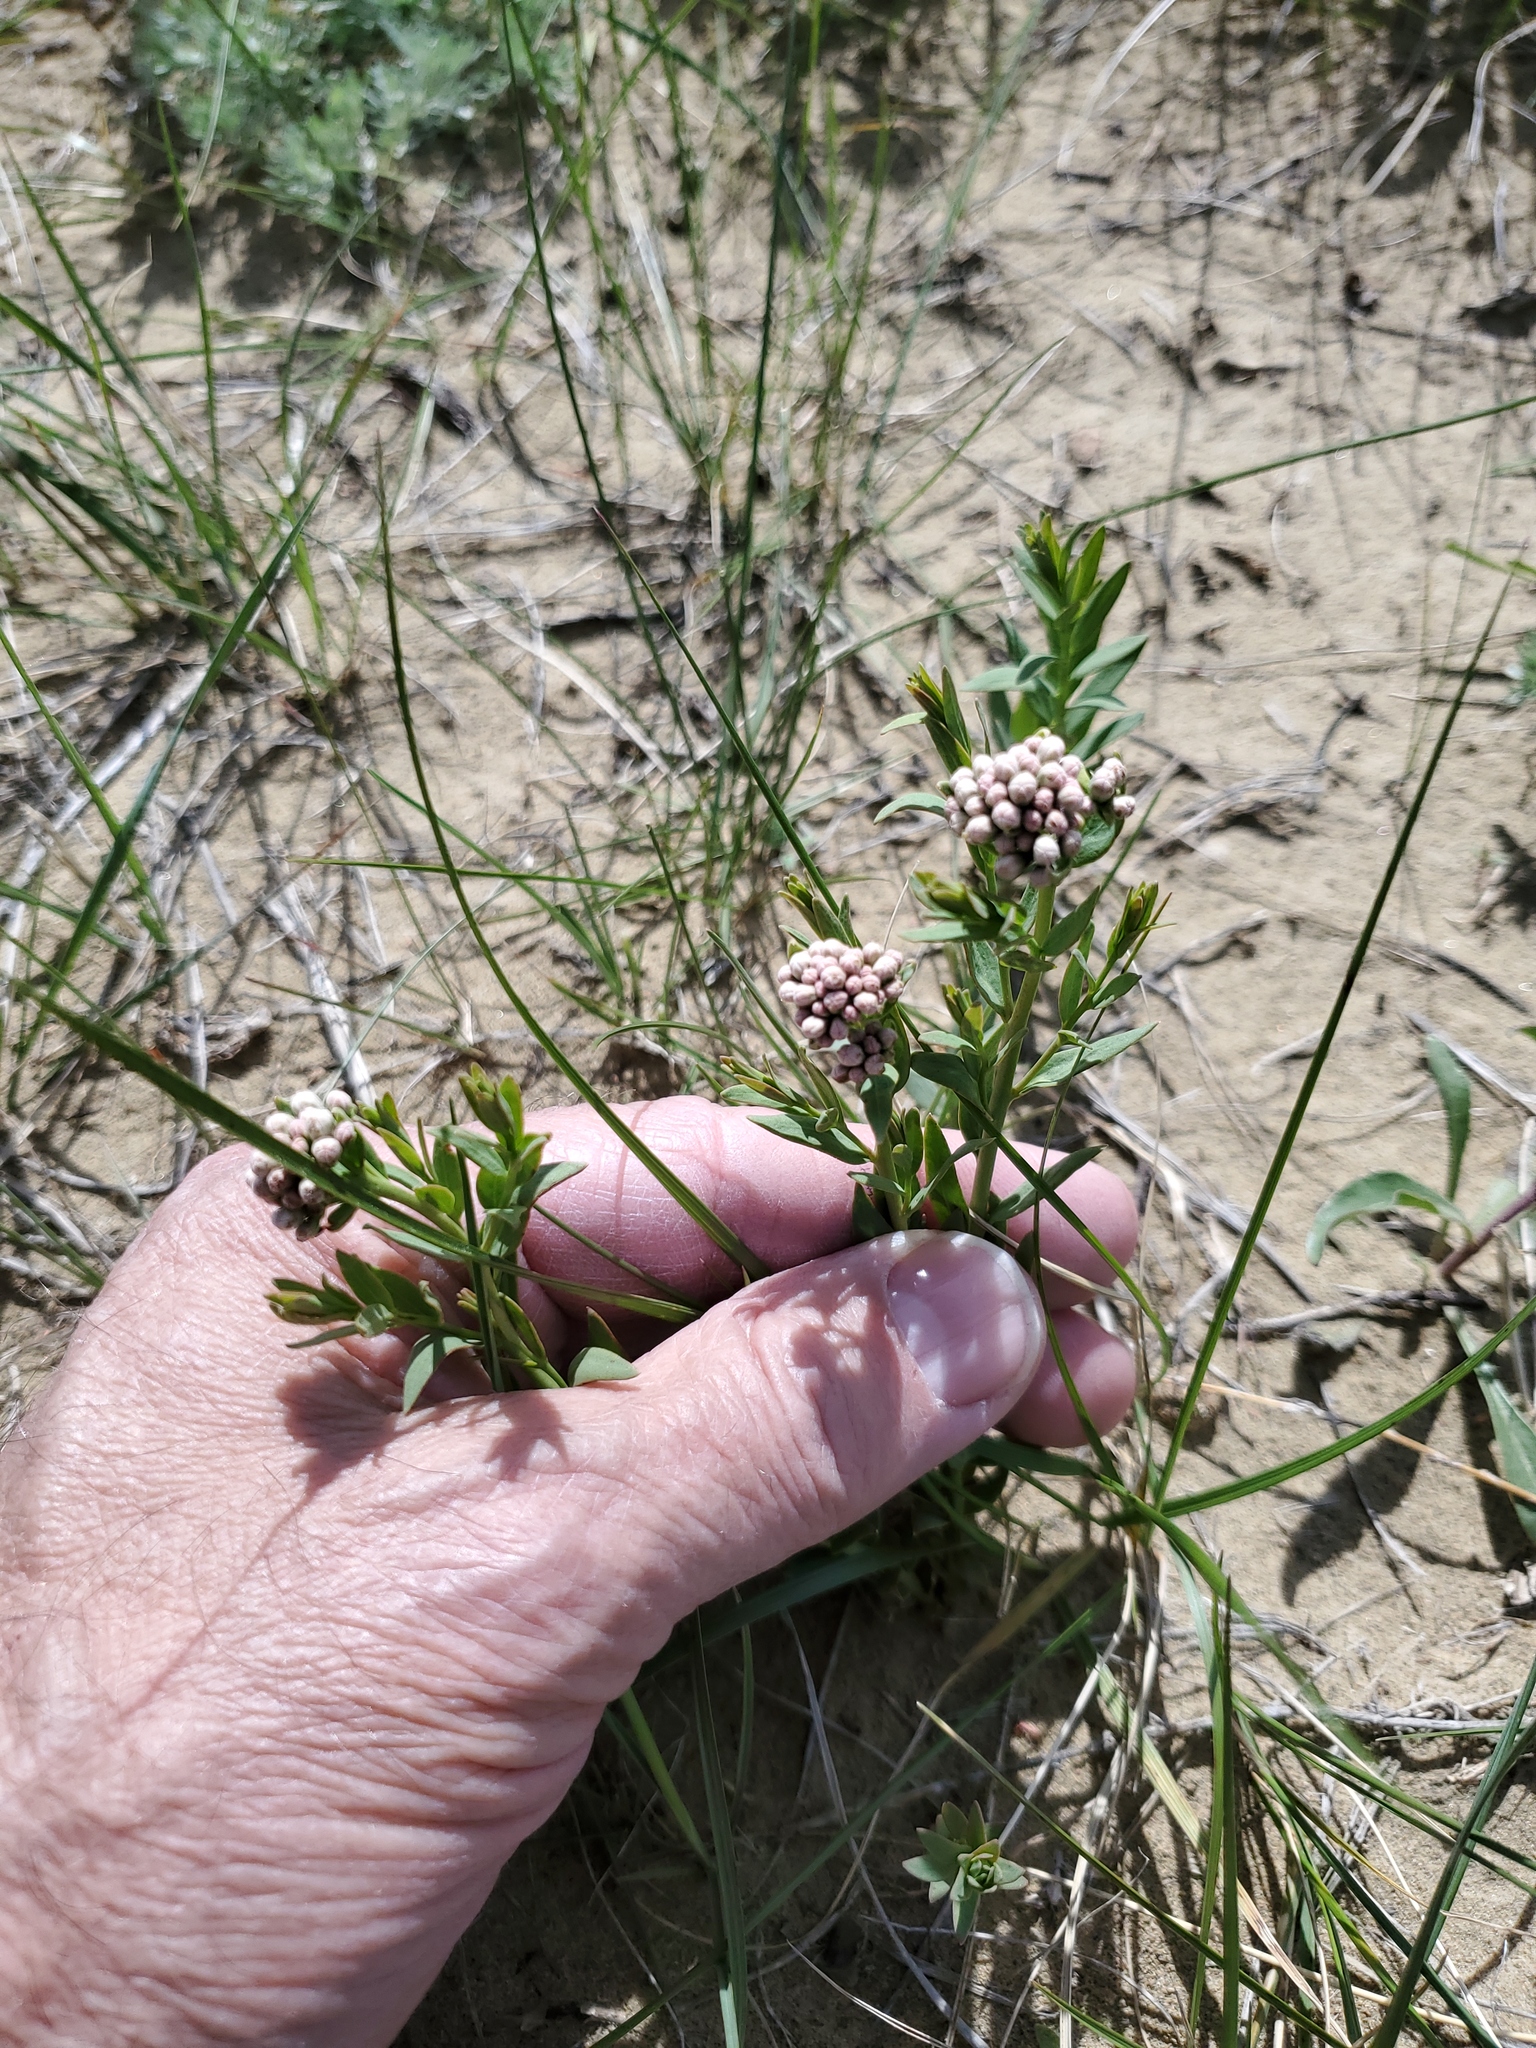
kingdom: Plantae
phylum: Tracheophyta
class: Magnoliopsida
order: Santalales
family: Comandraceae
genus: Comandra
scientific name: Comandra umbellata
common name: Bastard toadflax
